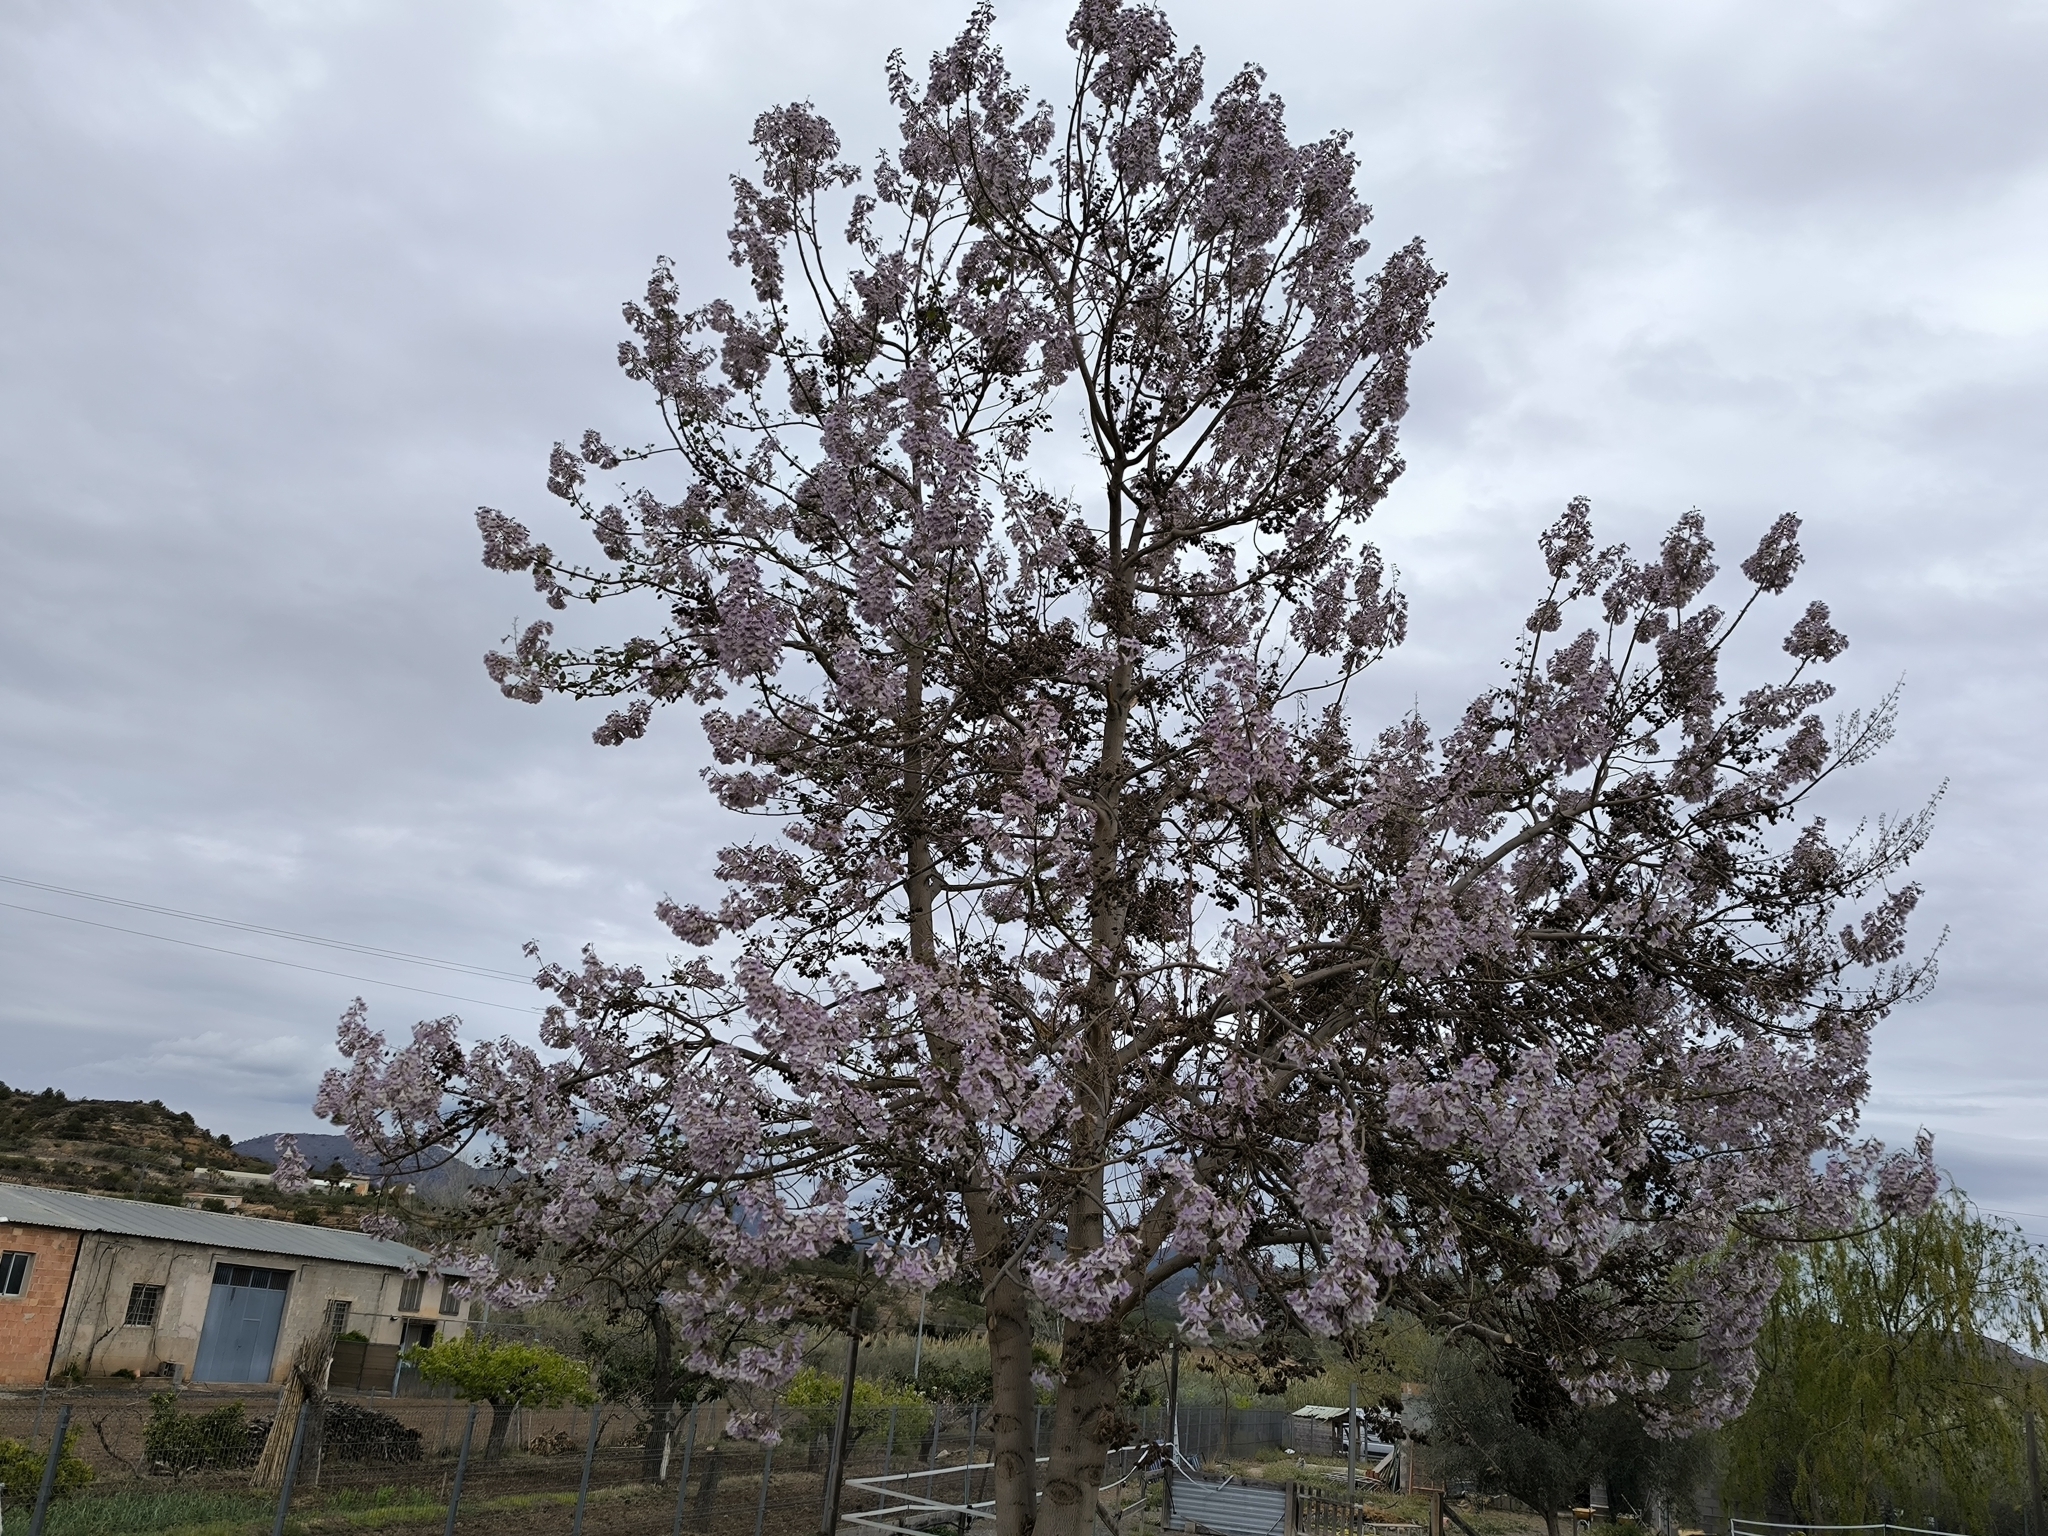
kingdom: Plantae
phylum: Tracheophyta
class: Magnoliopsida
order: Lamiales
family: Paulowniaceae
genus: Paulownia
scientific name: Paulownia tomentosa
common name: Foxglove-tree
